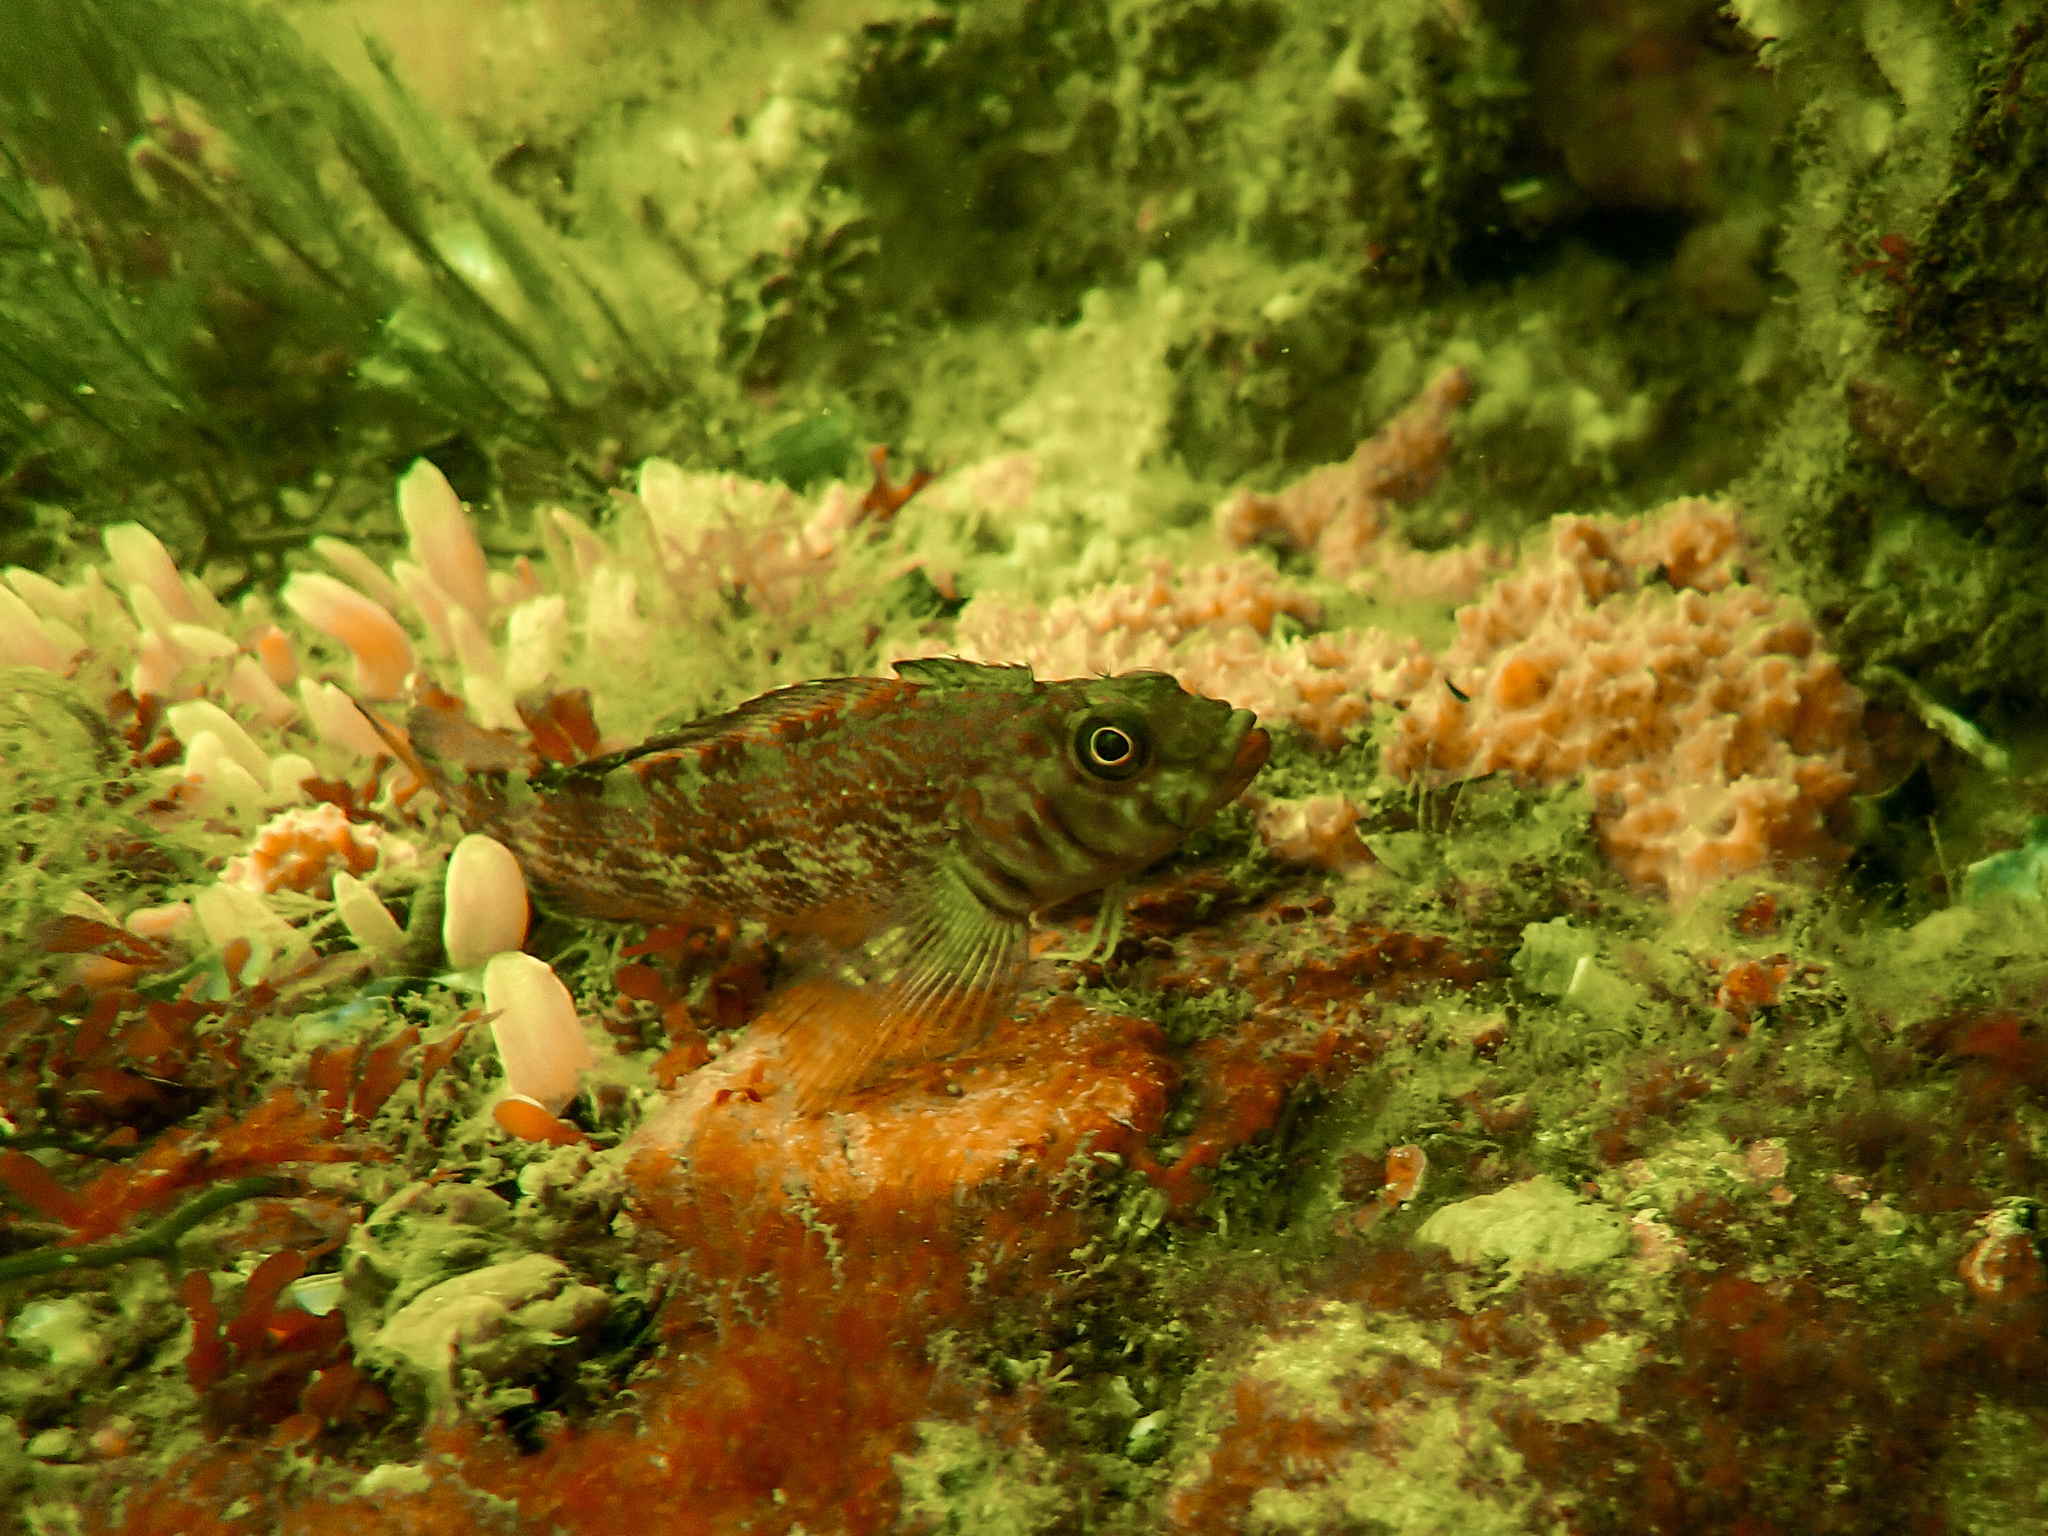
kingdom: Animalia
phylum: Chordata
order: Perciformes
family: Tripterygiidae
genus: Forsterygion
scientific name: Forsterygion varium
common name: Variable triplefin
